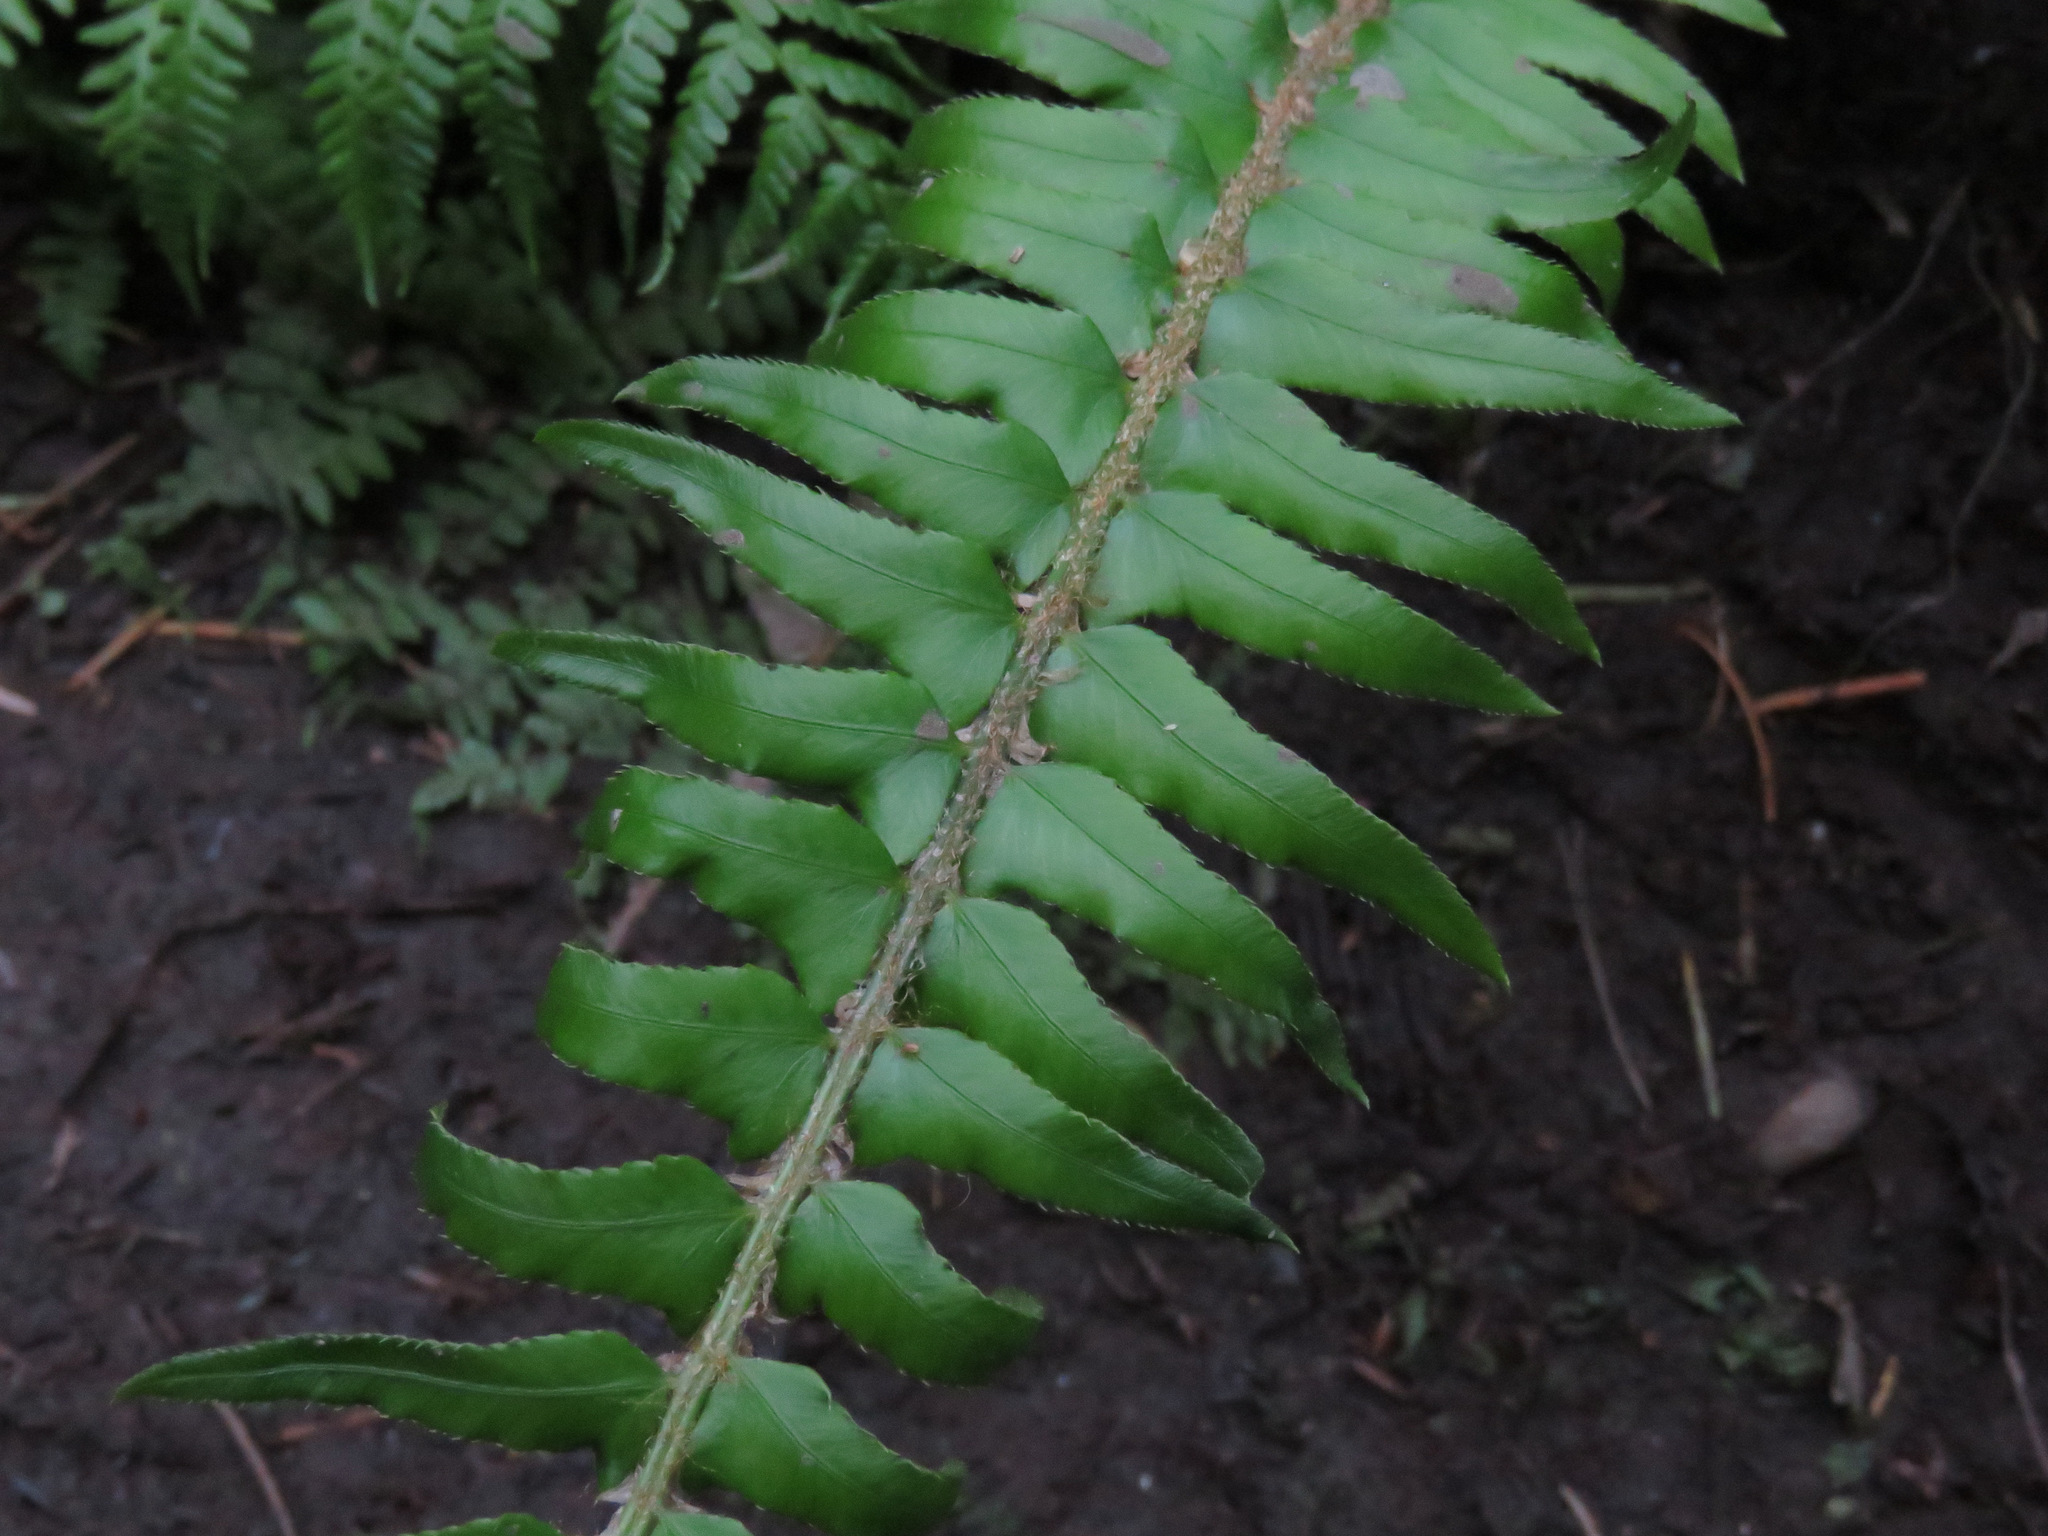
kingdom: Plantae
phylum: Tracheophyta
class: Polypodiopsida
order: Polypodiales
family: Dryopteridaceae
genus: Polystichum
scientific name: Polystichum munitum
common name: Western sword-fern
